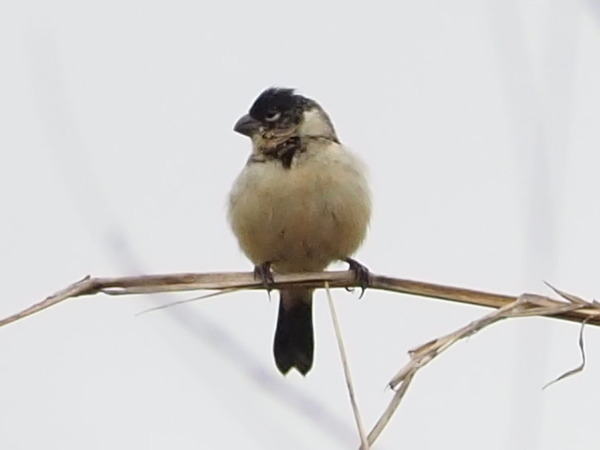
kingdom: Animalia
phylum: Chordata
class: Aves
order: Passeriformes
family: Thraupidae
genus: Sporophila
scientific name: Sporophila morelleti
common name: Morelet's seedeater
